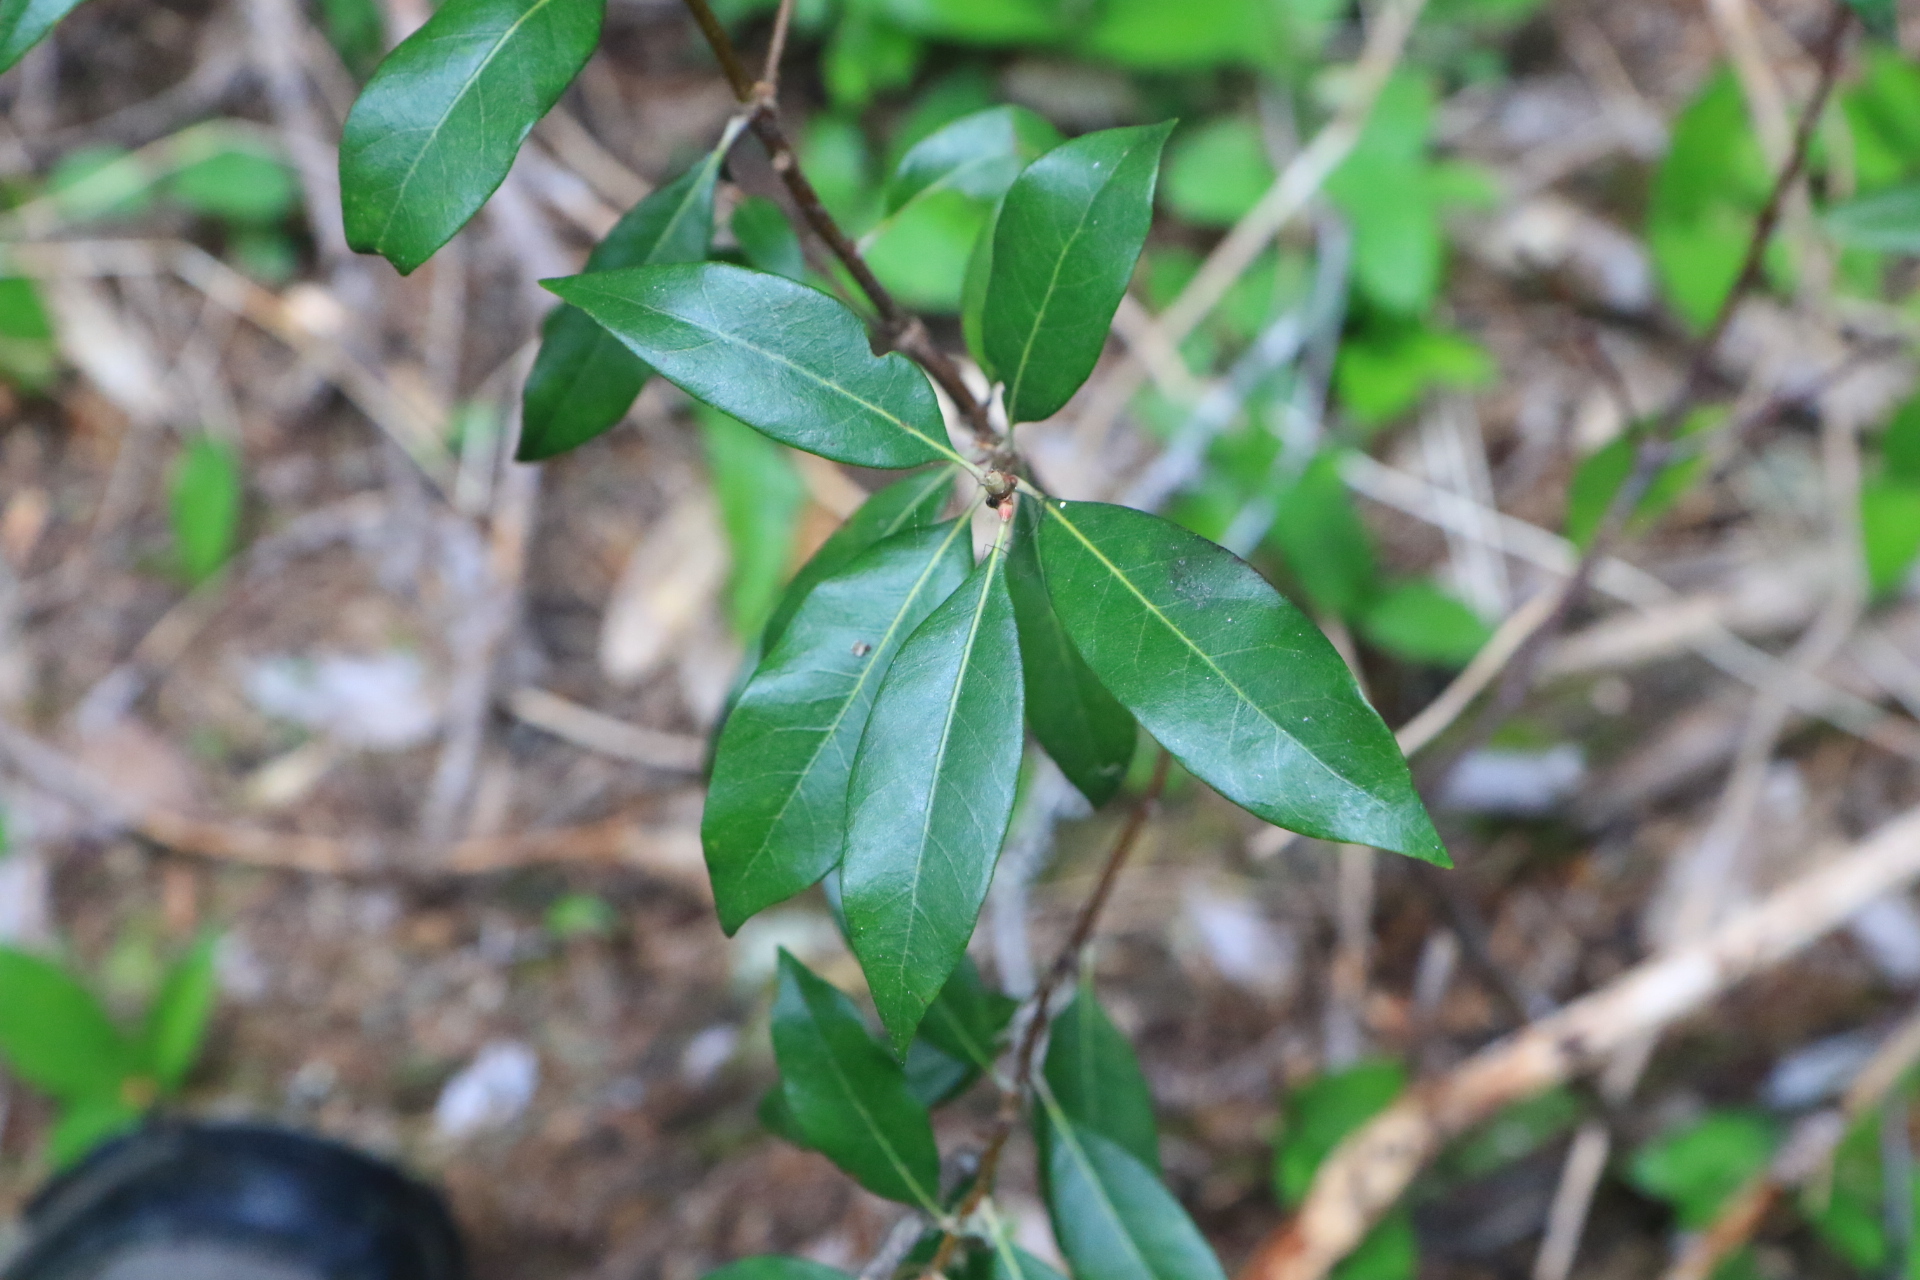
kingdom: Plantae
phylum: Tracheophyta
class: Magnoliopsida
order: Fagales
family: Fagaceae
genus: Chrysolepis
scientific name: Chrysolepis chrysophylla
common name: Giant chinquapin
